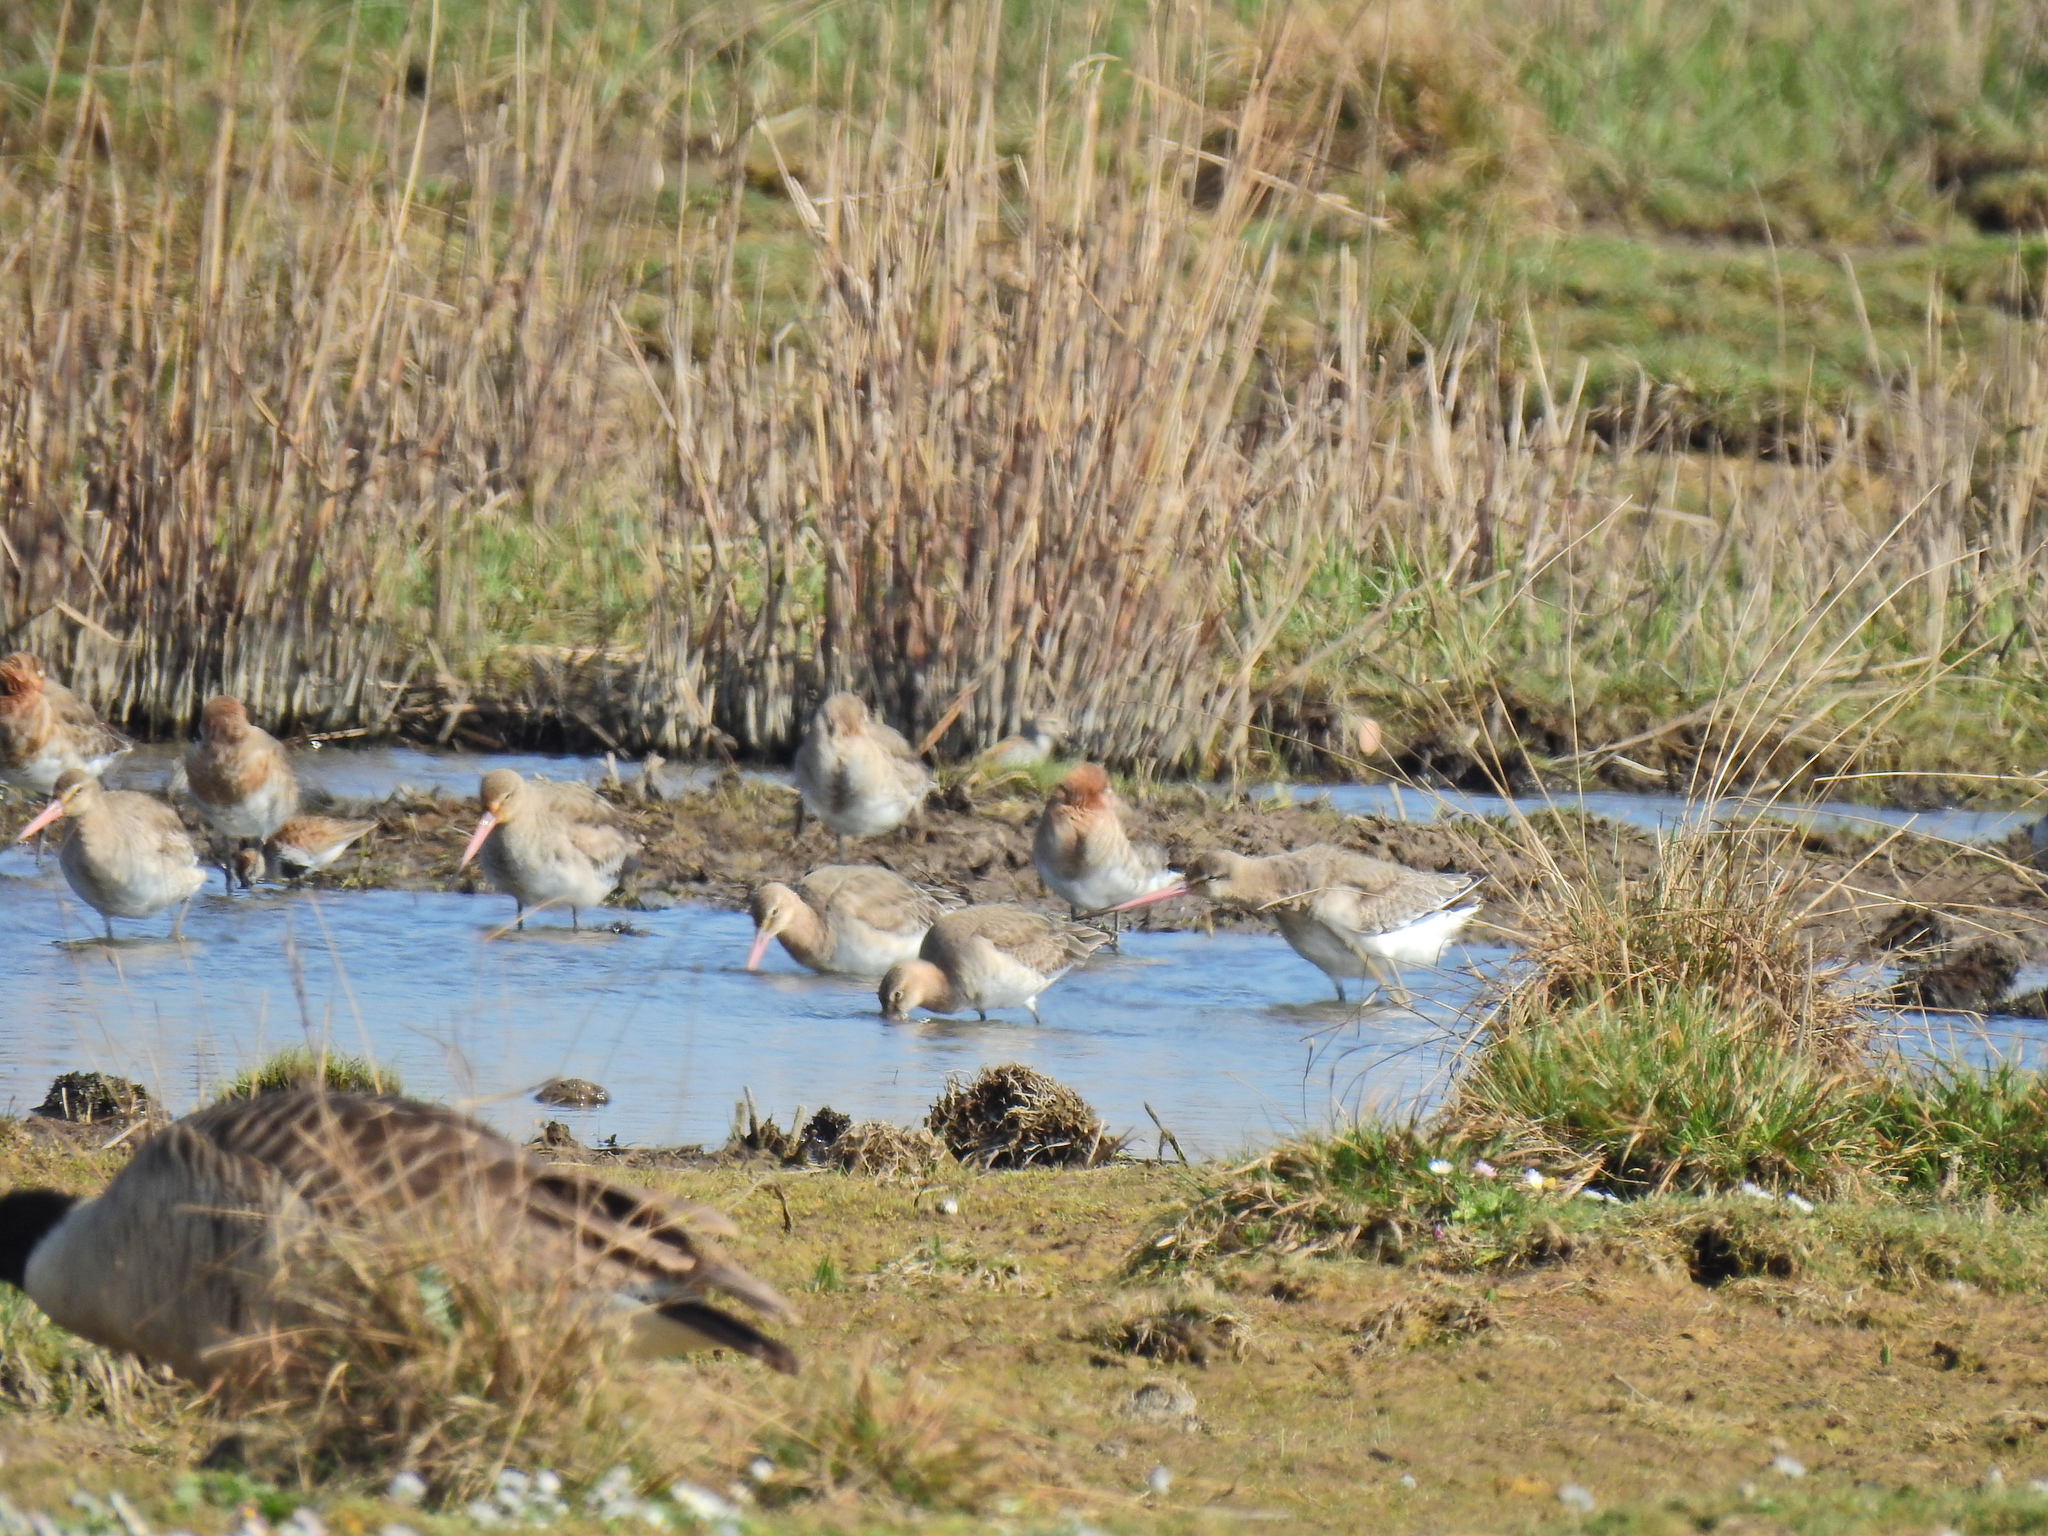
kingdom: Animalia
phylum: Chordata
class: Aves
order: Charadriiformes
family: Scolopacidae
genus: Limosa
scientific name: Limosa limosa
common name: Black-tailed godwit
